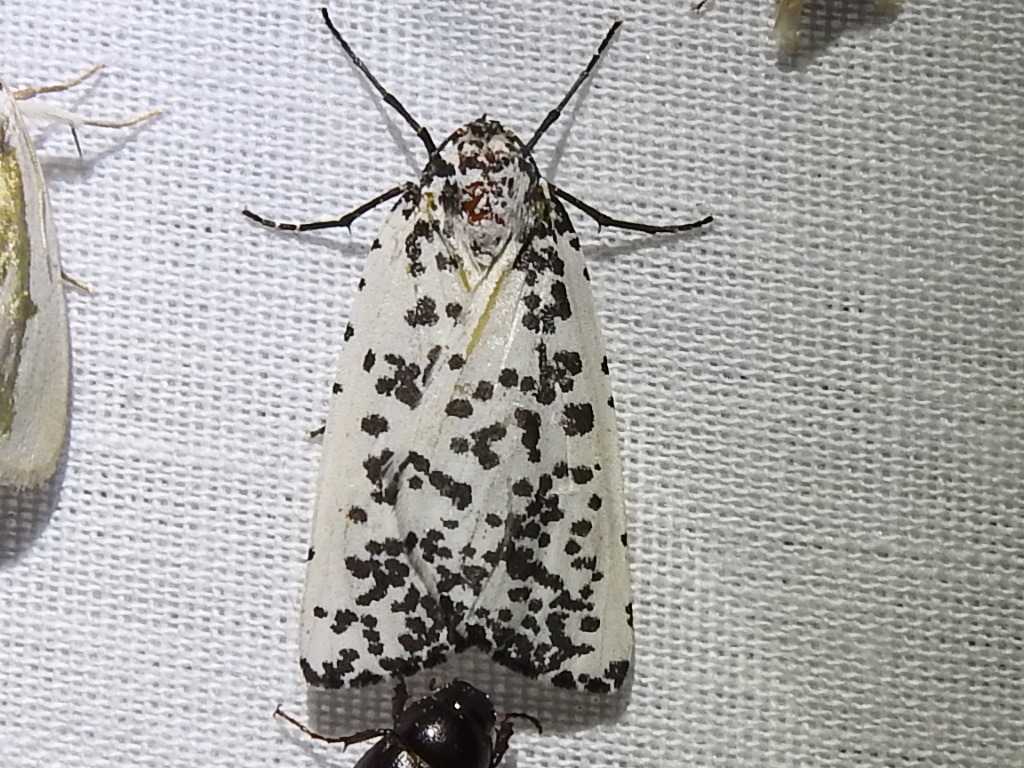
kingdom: Animalia
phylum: Arthropoda
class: Insecta
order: Lepidoptera
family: Geometridae
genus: Eucaterva
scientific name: Eucaterva variaria
